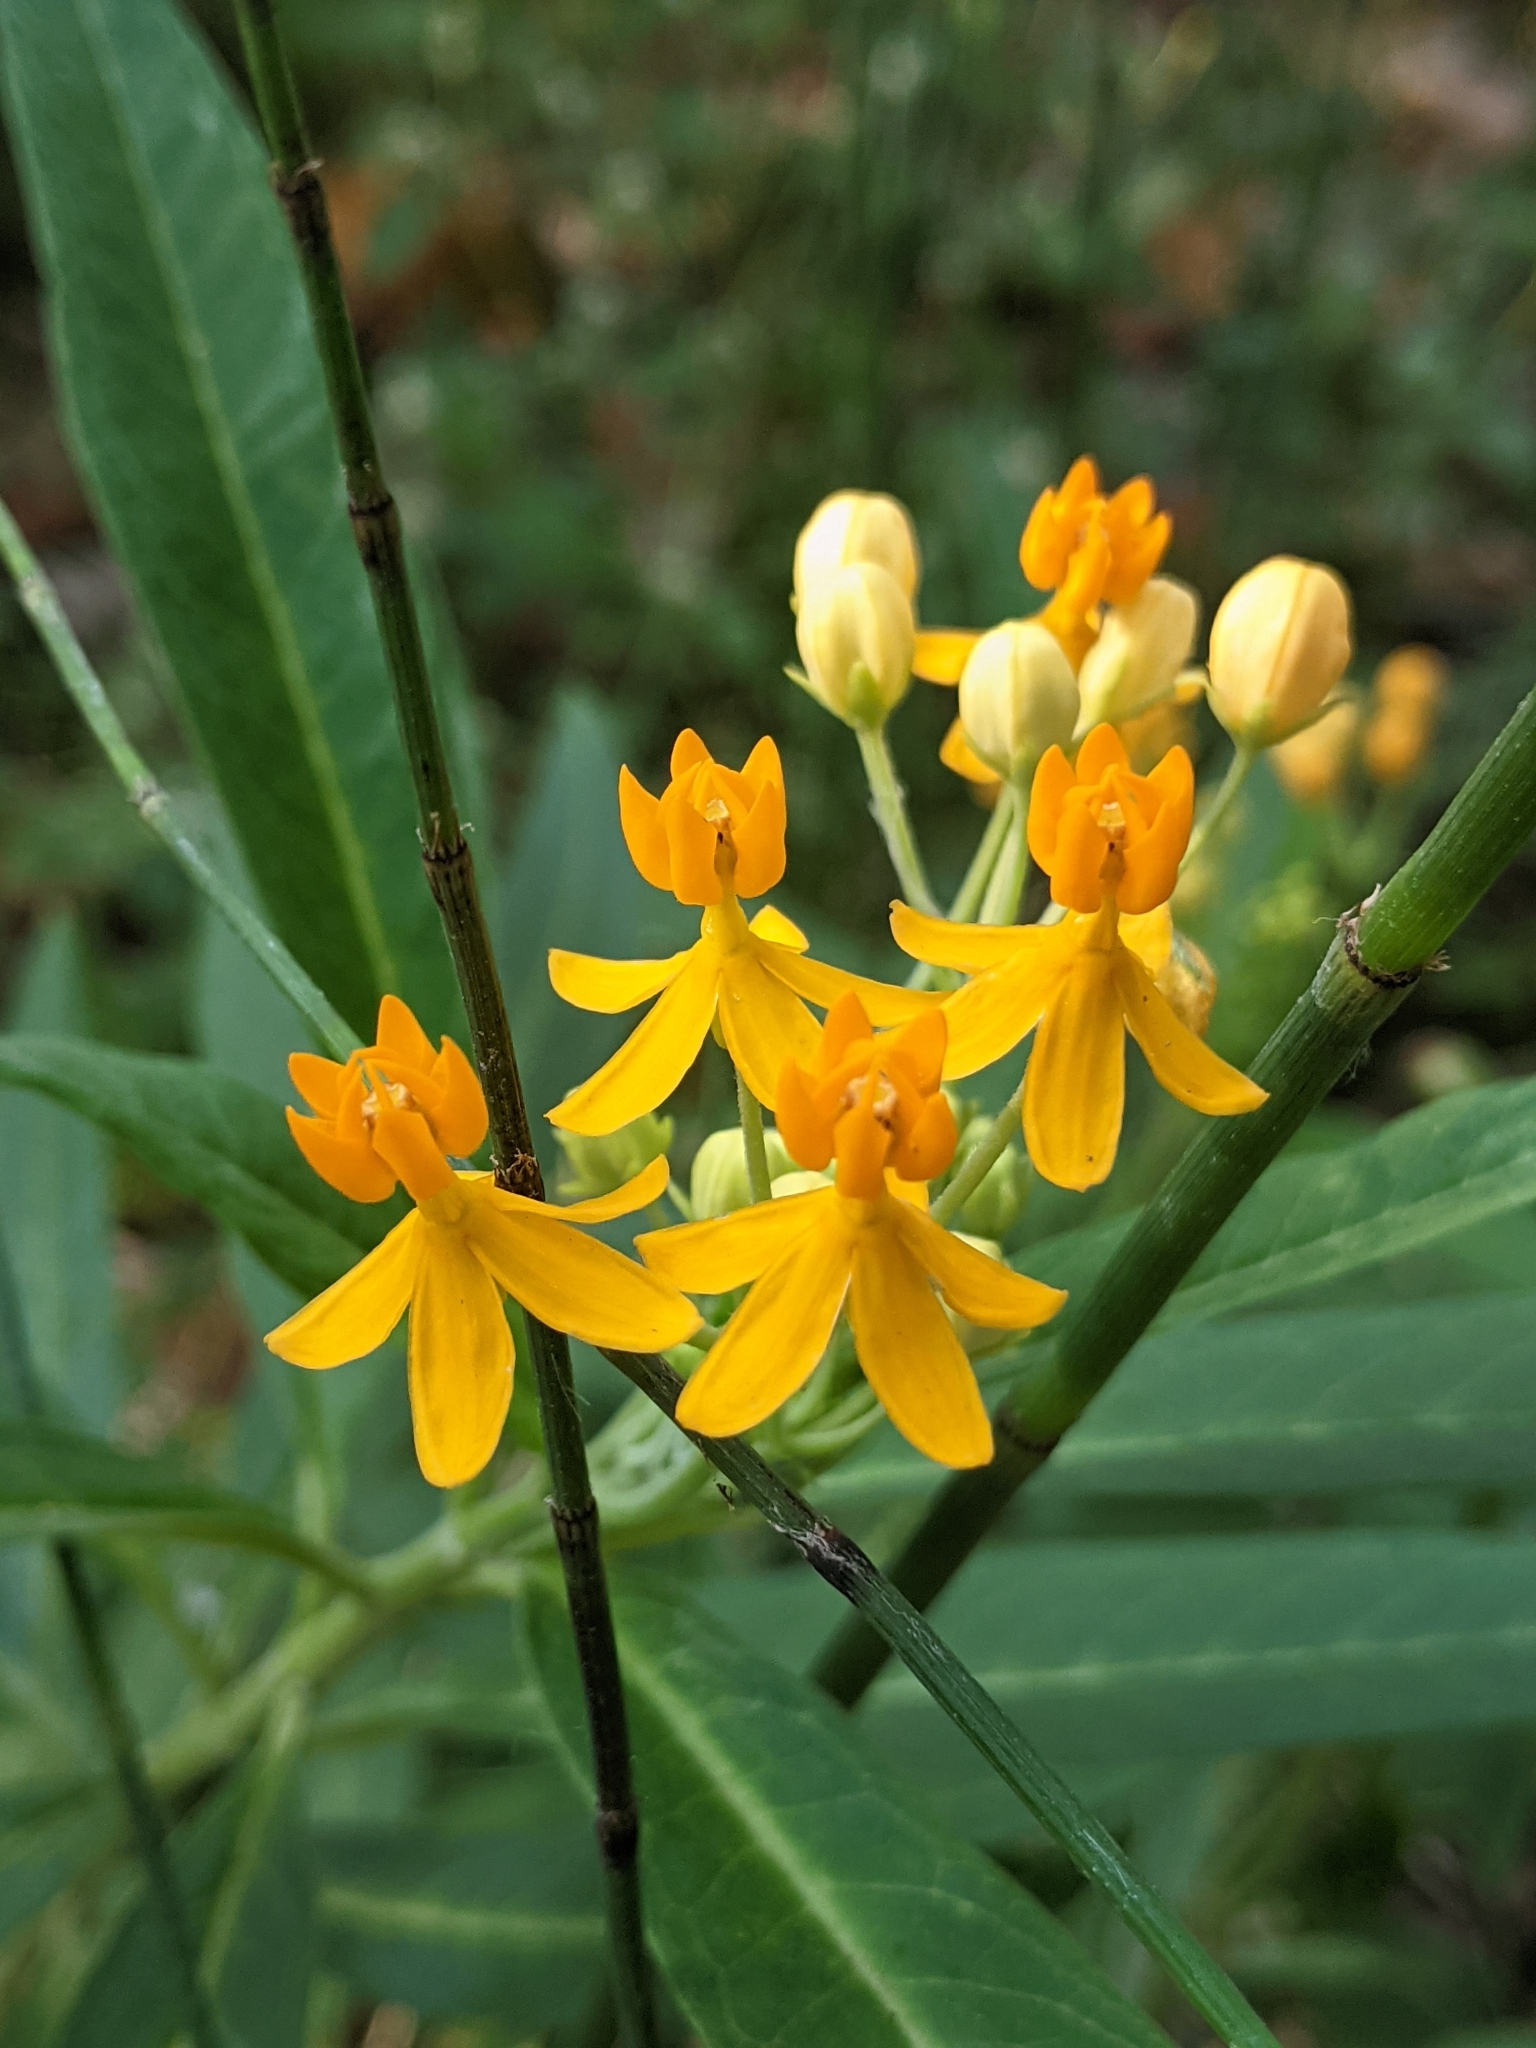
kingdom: Plantae
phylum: Tracheophyta
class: Magnoliopsida
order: Gentianales
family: Apocynaceae
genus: Asclepias
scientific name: Asclepias curassavica
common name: Bloodflower
